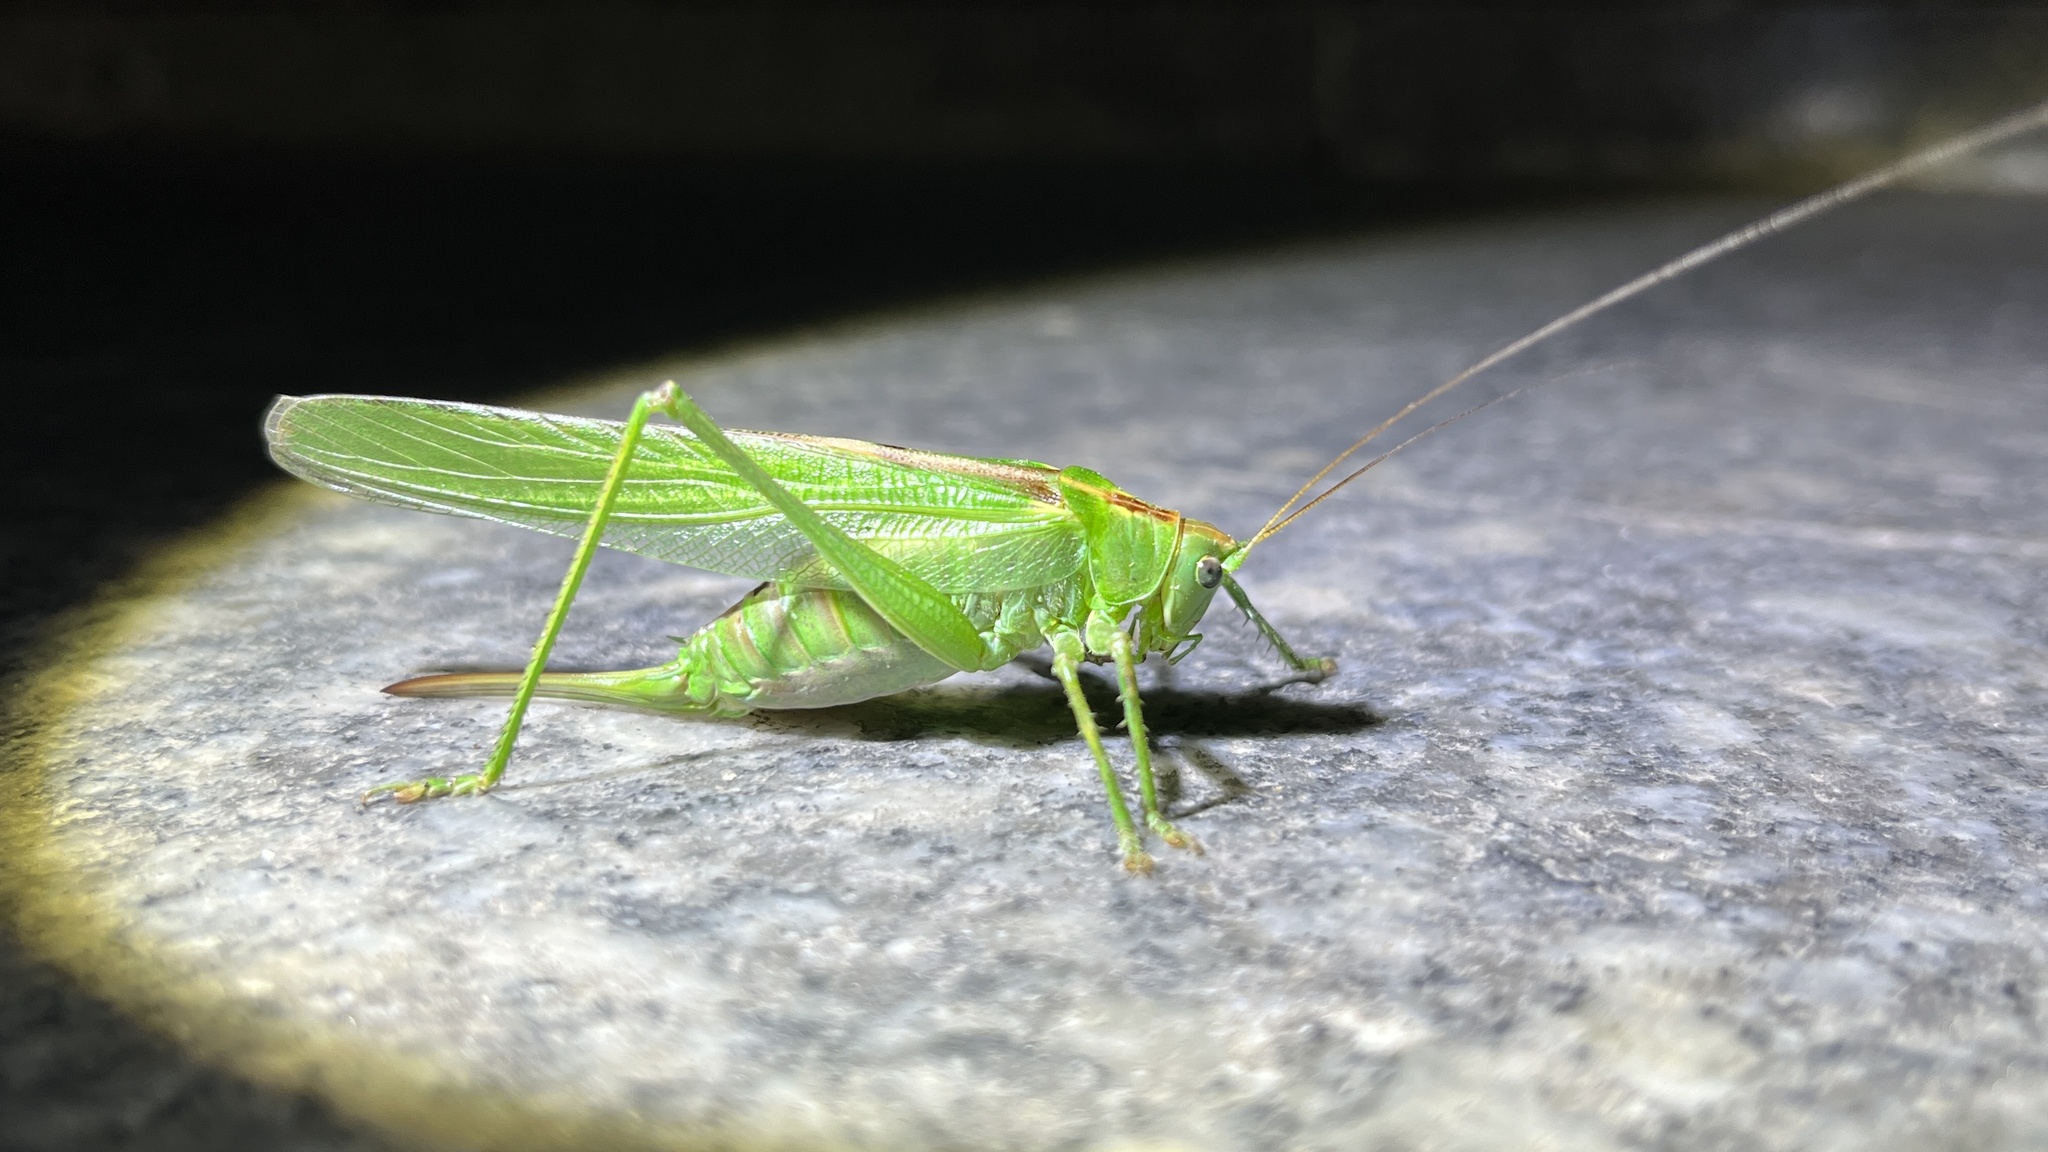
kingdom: Animalia
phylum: Arthropoda
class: Insecta
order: Orthoptera
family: Tettigoniidae
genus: Tettigonia
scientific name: Tettigonia viridissima
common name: Great green bush-cricket
